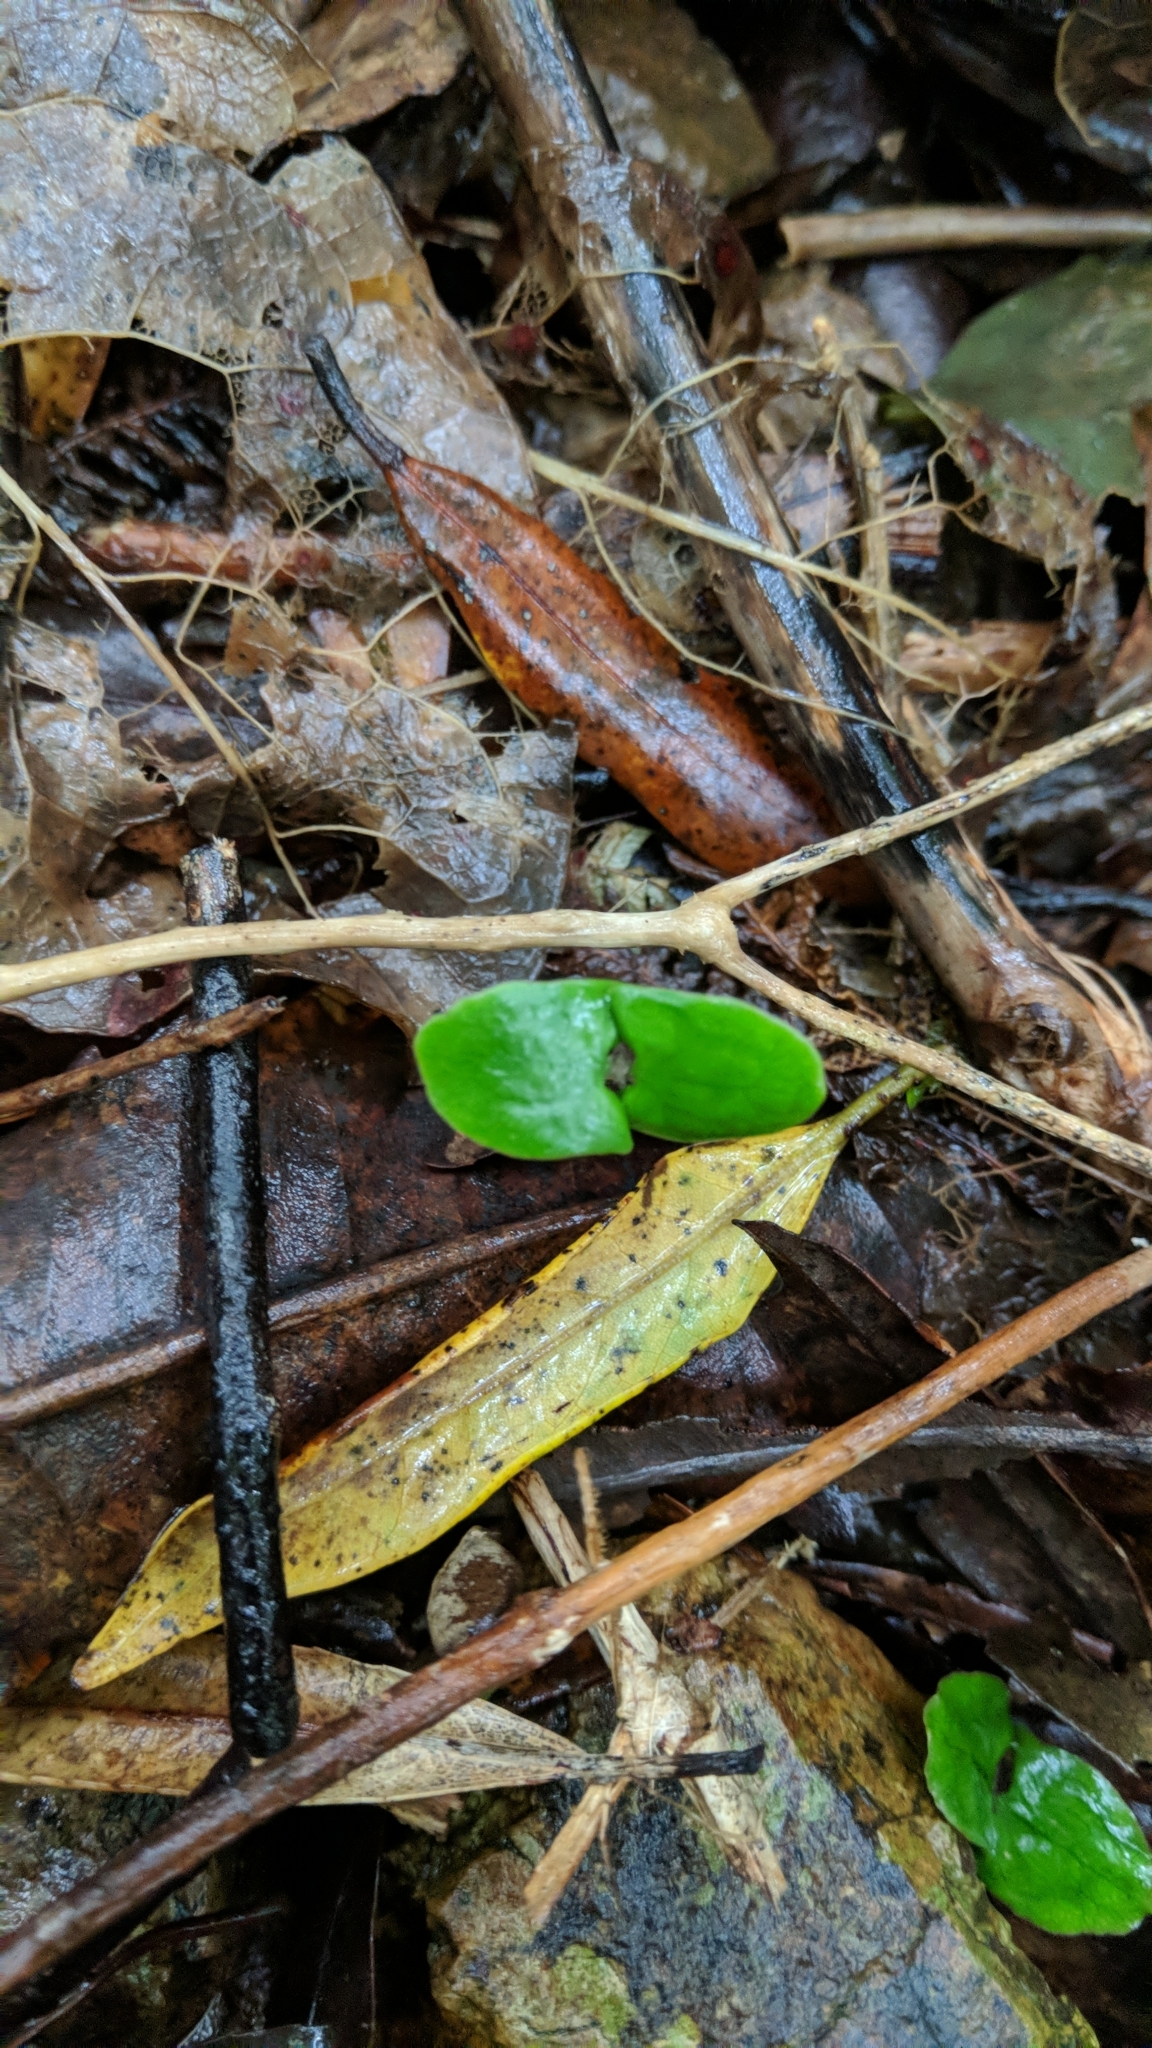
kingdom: Plantae
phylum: Tracheophyta
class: Magnoliopsida
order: Proteales
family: Proteaceae
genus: Knightia
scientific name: Knightia excelsa
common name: New zealand-honeysuckle
